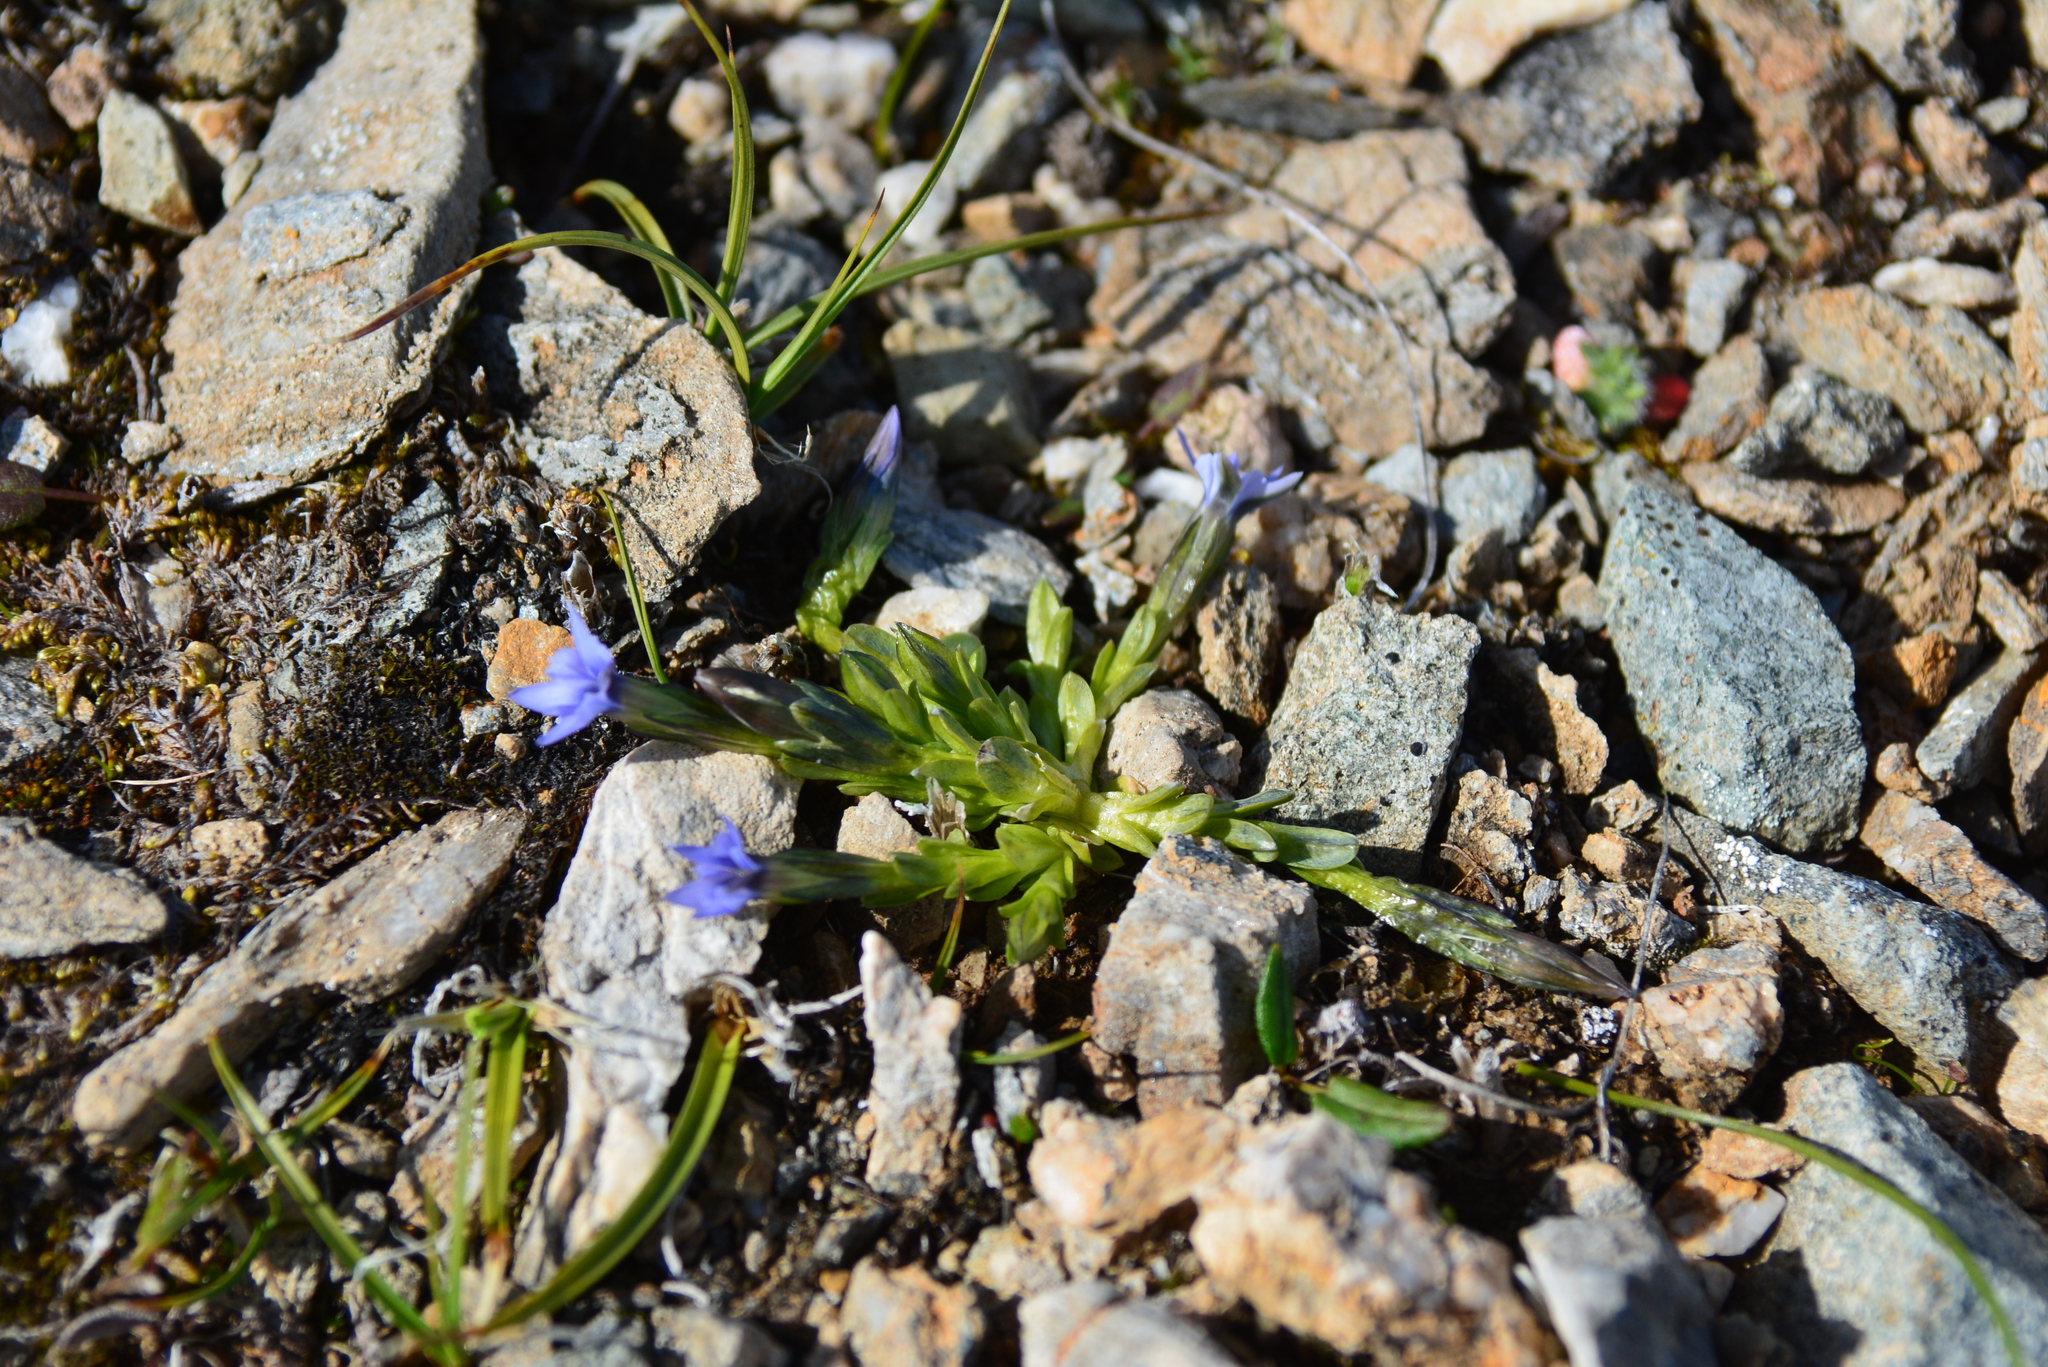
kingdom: Plantae
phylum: Tracheophyta
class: Magnoliopsida
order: Gentianales
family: Gentianaceae
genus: Gentiana
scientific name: Gentiana prostrata
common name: Moss gentian
